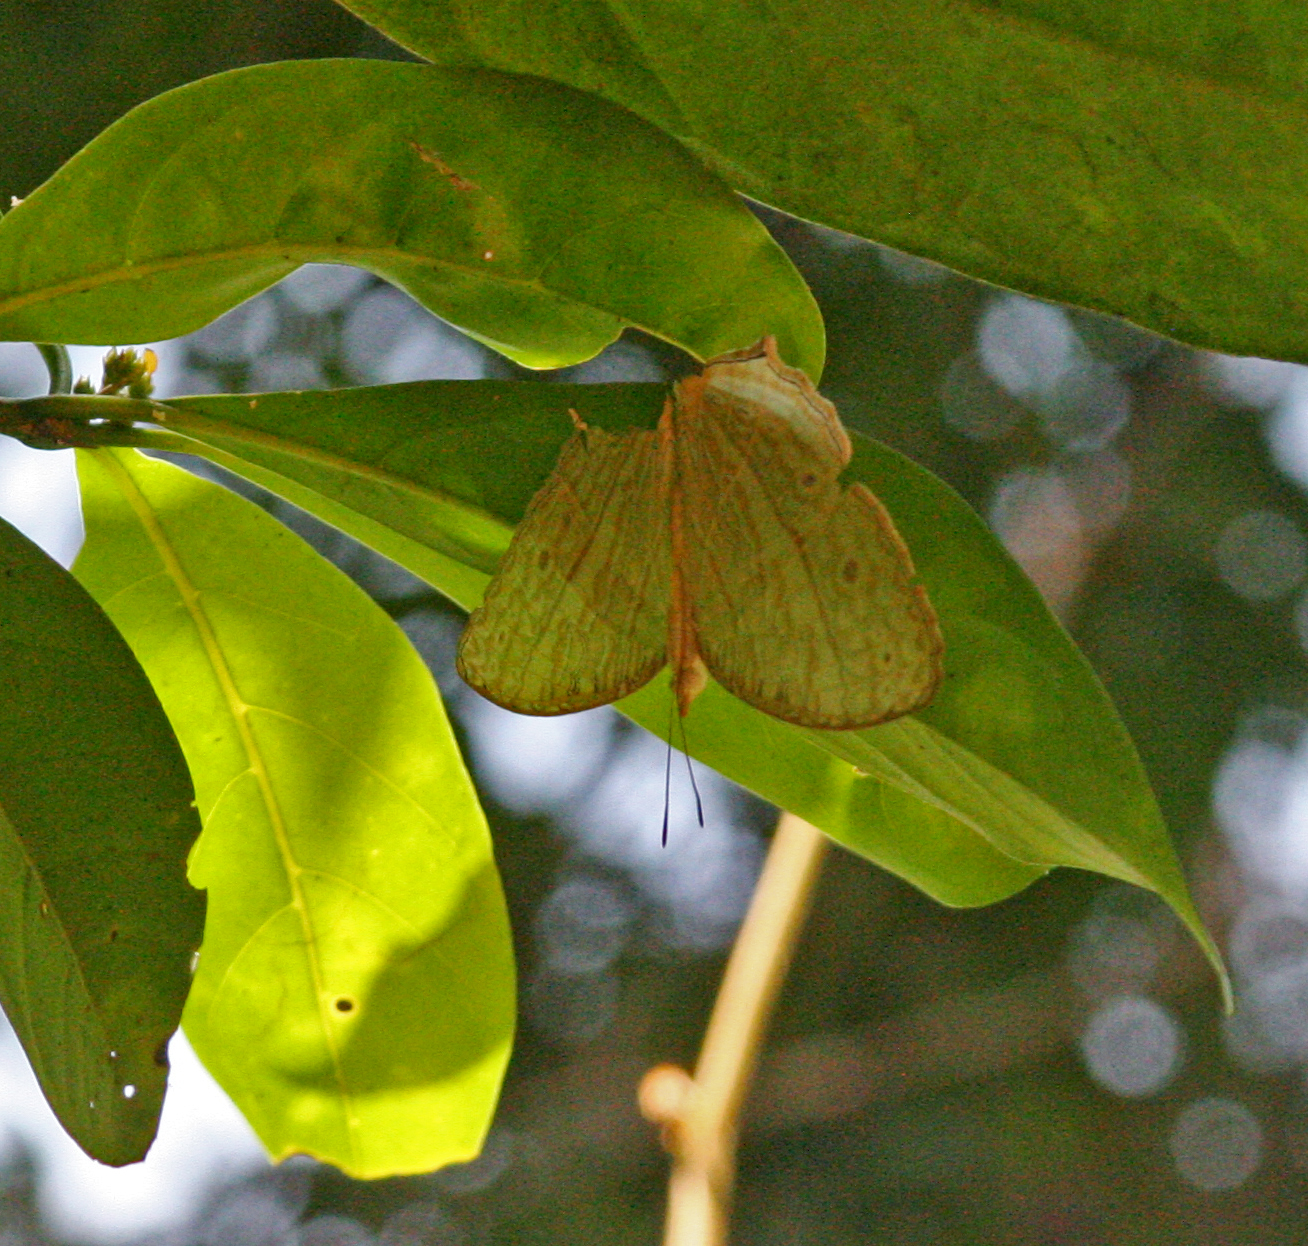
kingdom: Animalia
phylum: Arthropoda
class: Insecta
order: Lepidoptera
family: Nymphalidae
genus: Cyrestis
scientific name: Cyrestis cocles
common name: Marbled map
